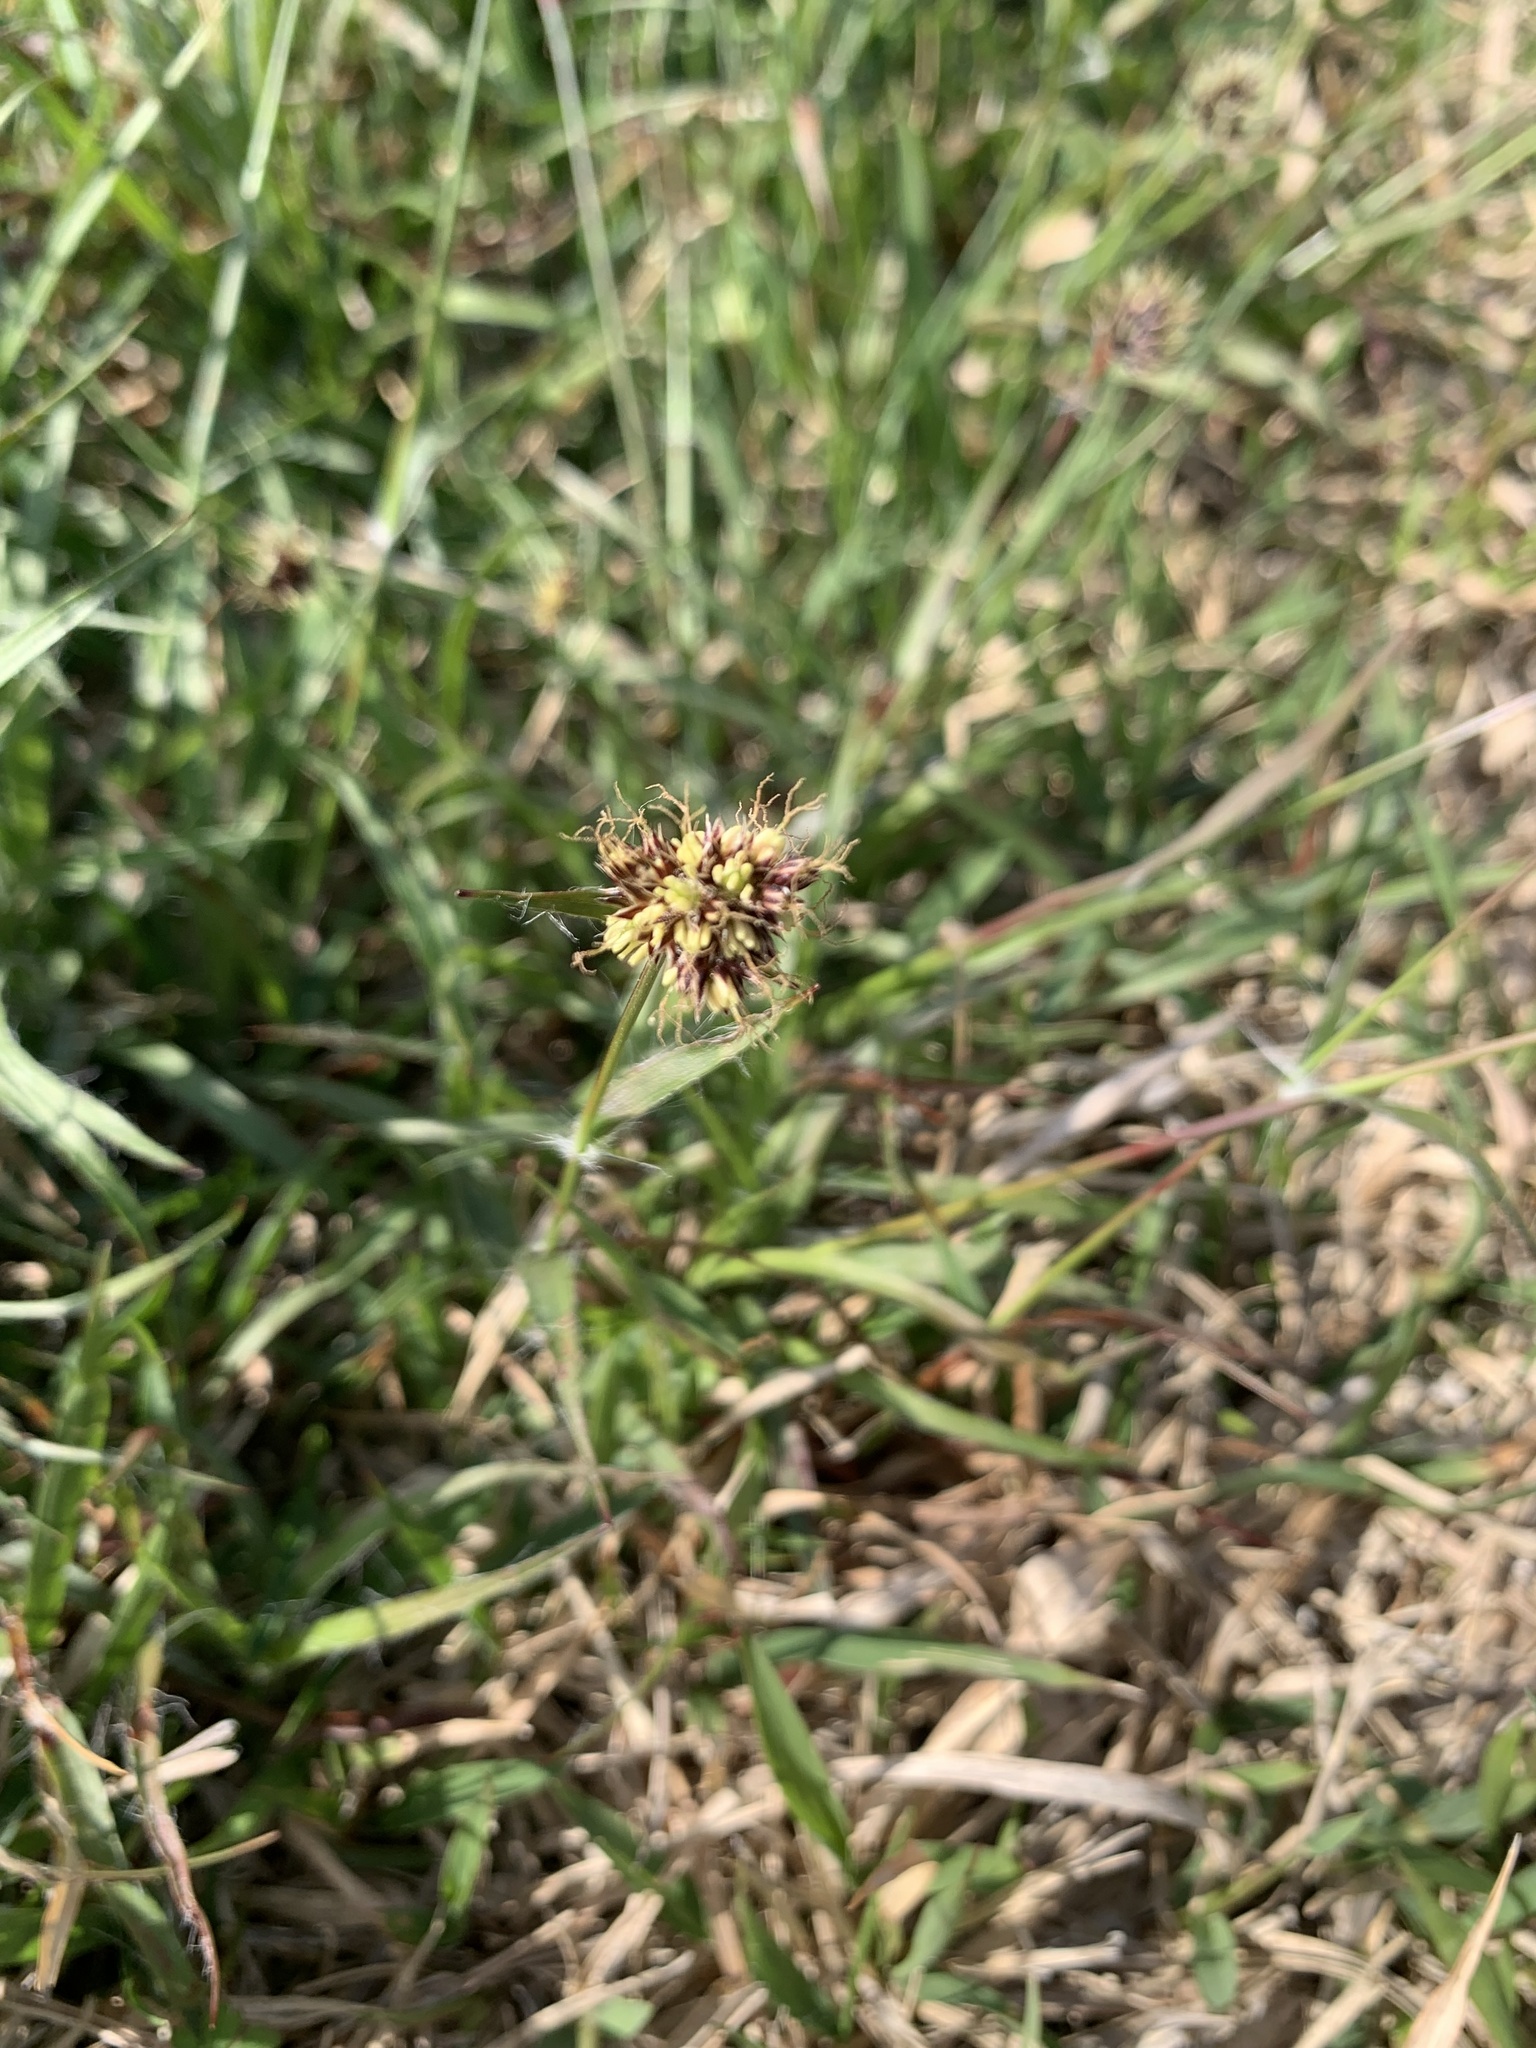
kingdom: Plantae
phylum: Tracheophyta
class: Liliopsida
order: Poales
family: Juncaceae
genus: Luzula
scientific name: Luzula capitata
